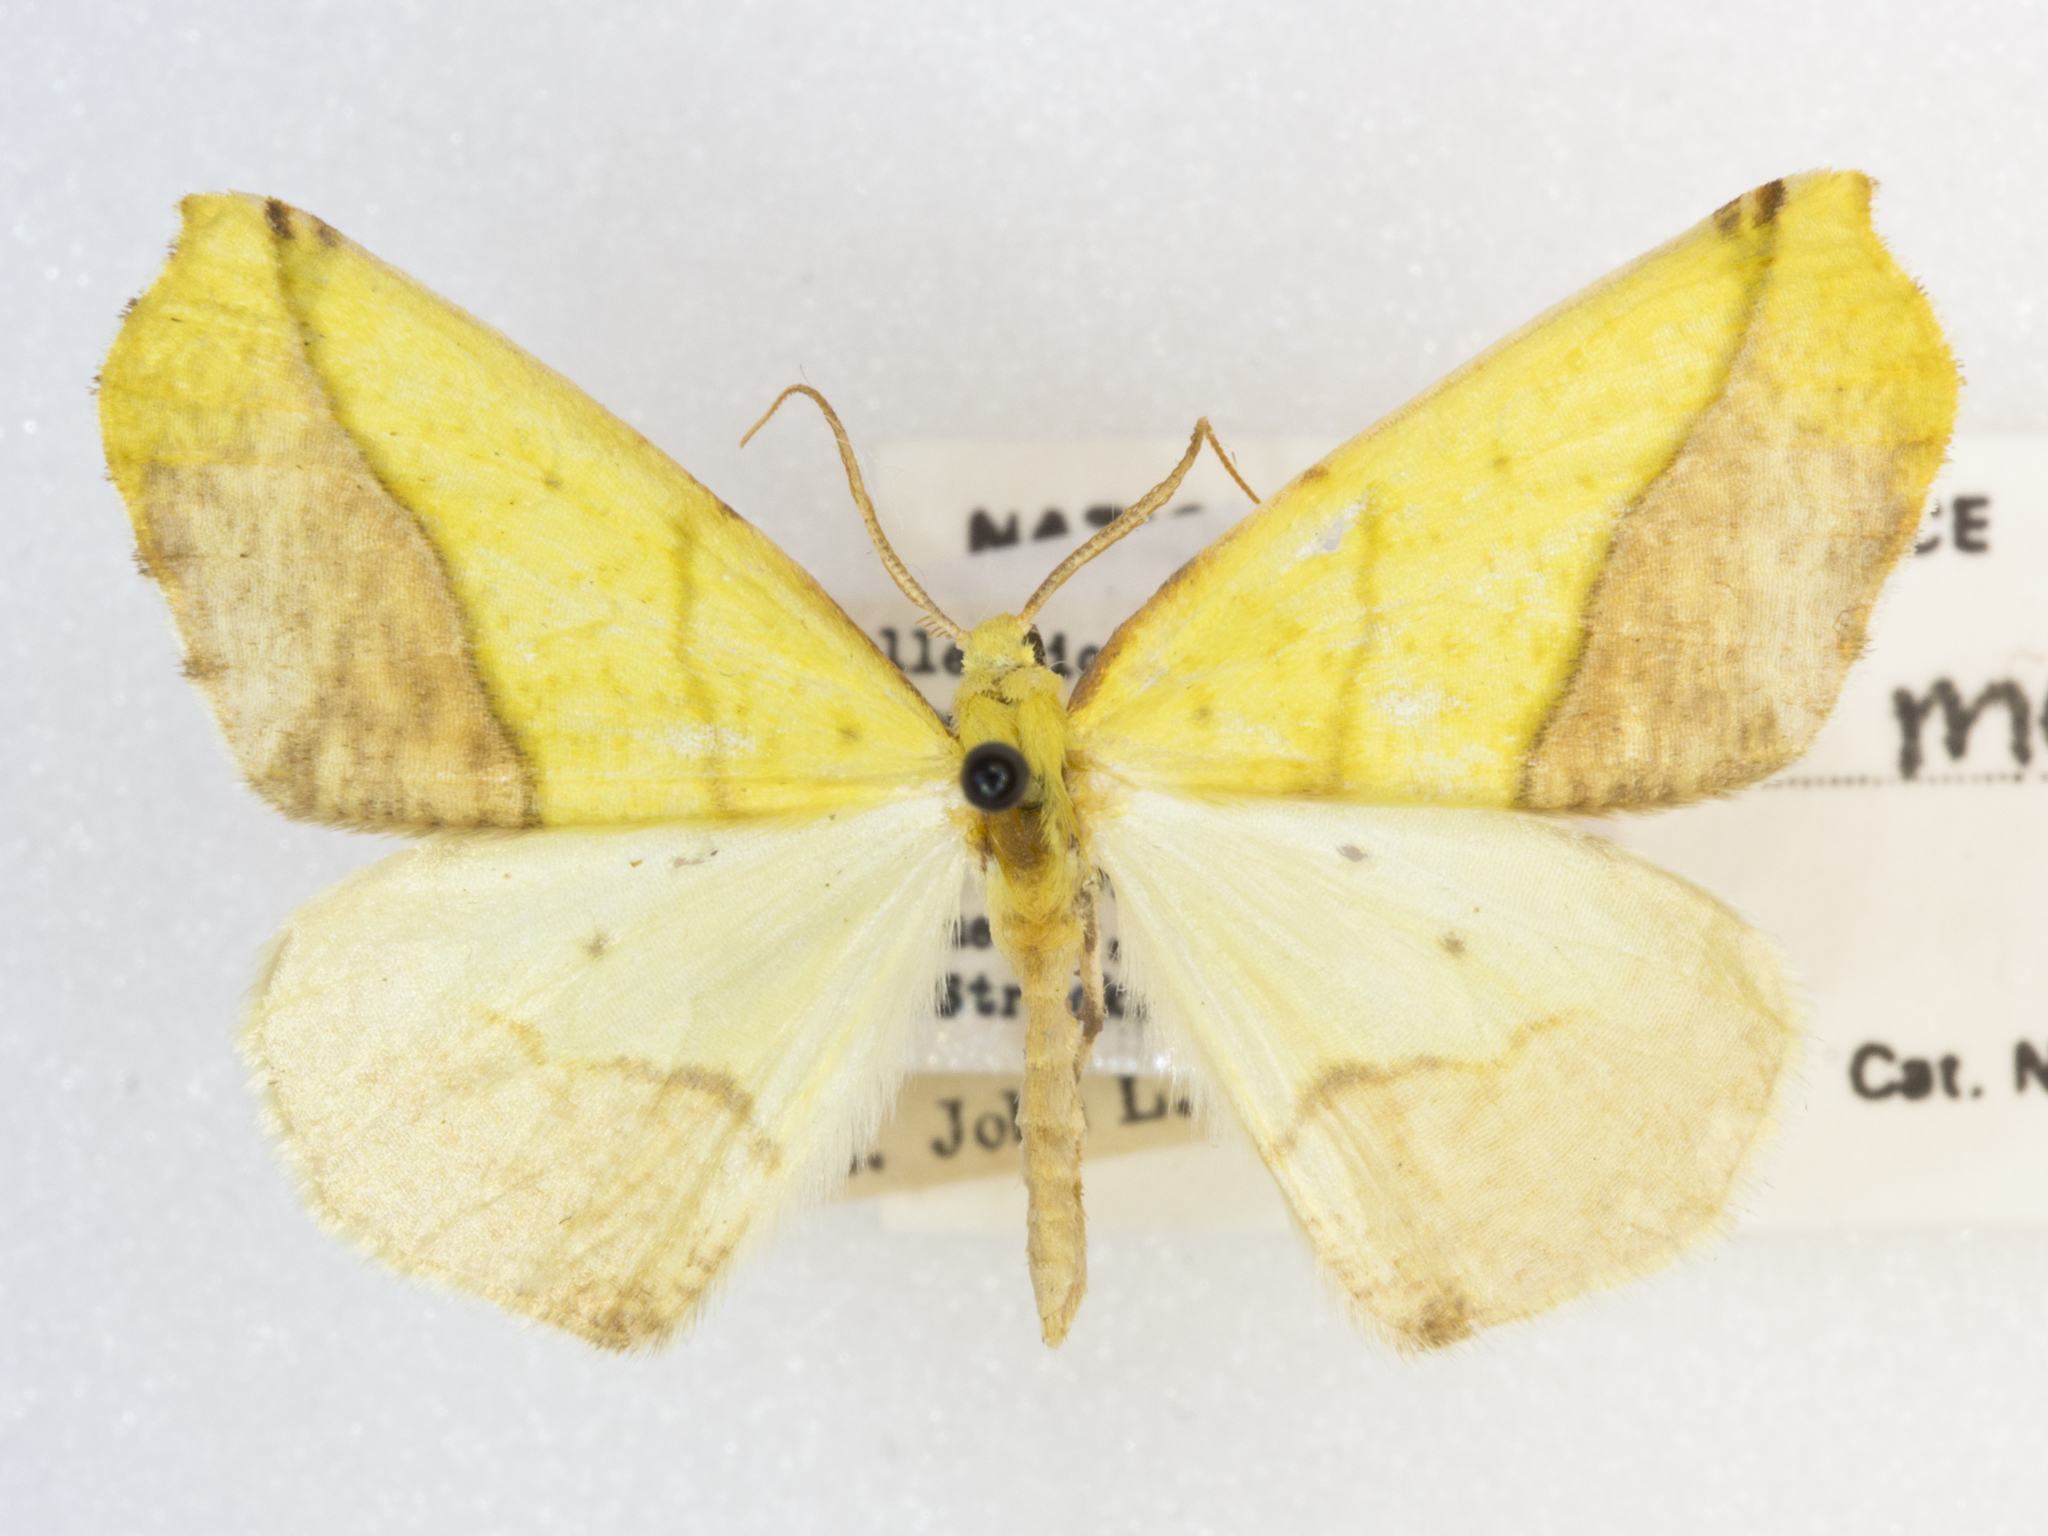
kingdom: Animalia
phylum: Arthropoda
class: Insecta
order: Lepidoptera
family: Geometridae
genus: Sicya
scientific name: Sicya macularia
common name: Sharp-lined yellow
